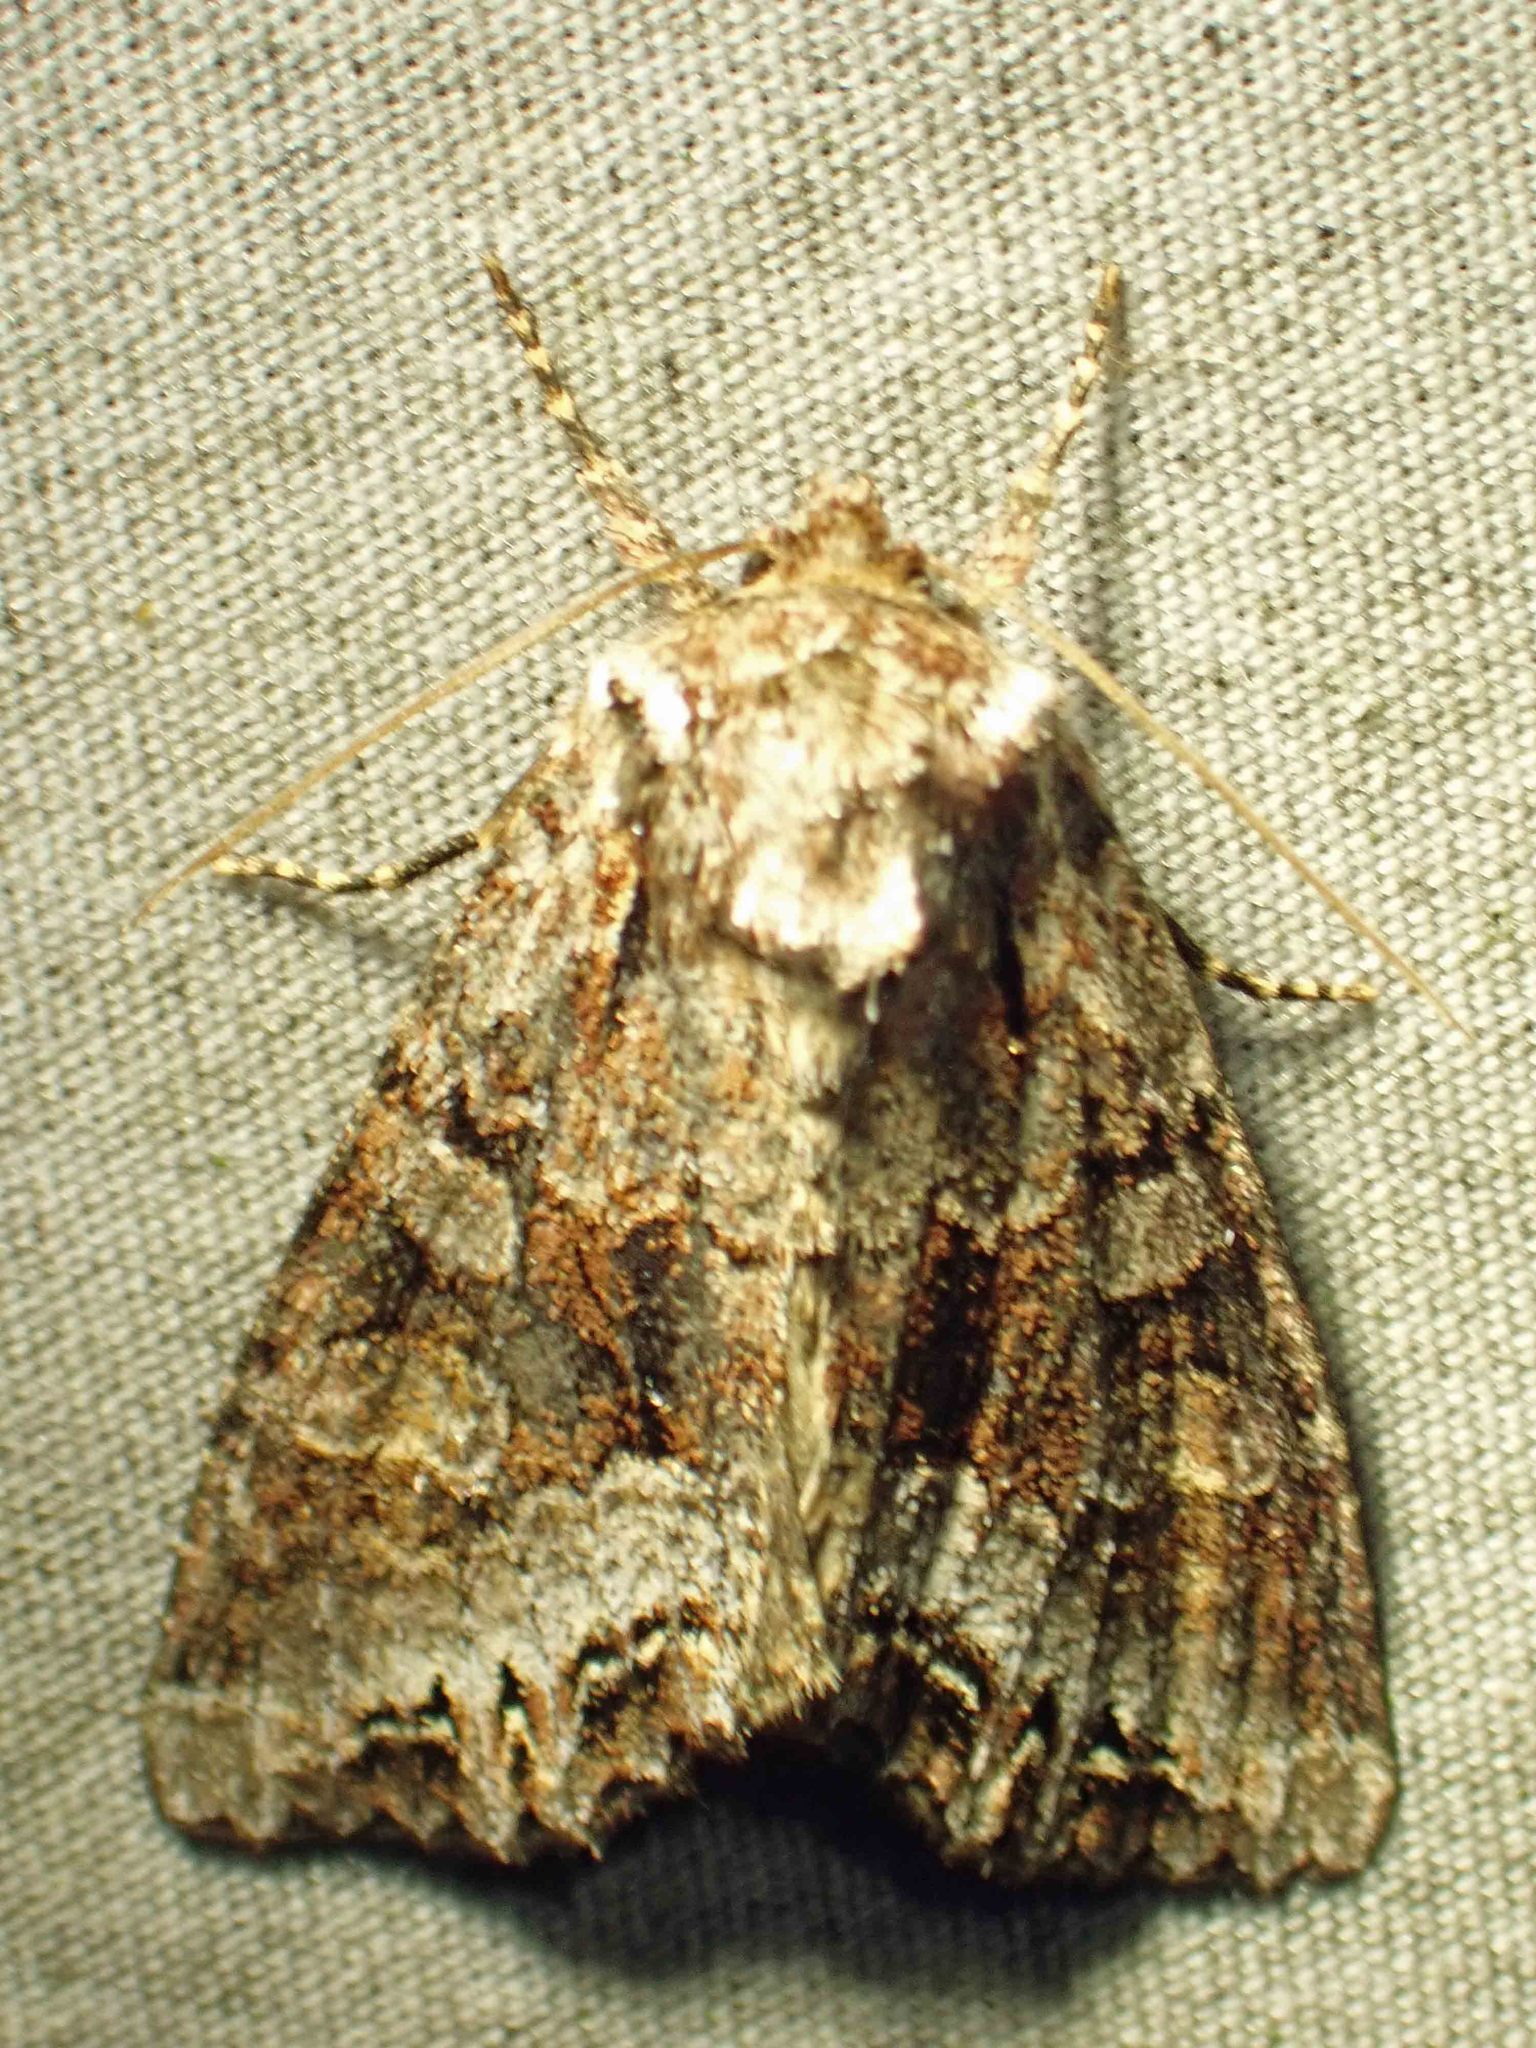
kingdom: Animalia
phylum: Arthropoda
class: Insecta
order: Lepidoptera
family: Noctuidae
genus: Lacanobia
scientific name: Lacanobia grandis
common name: Grand arches moth
